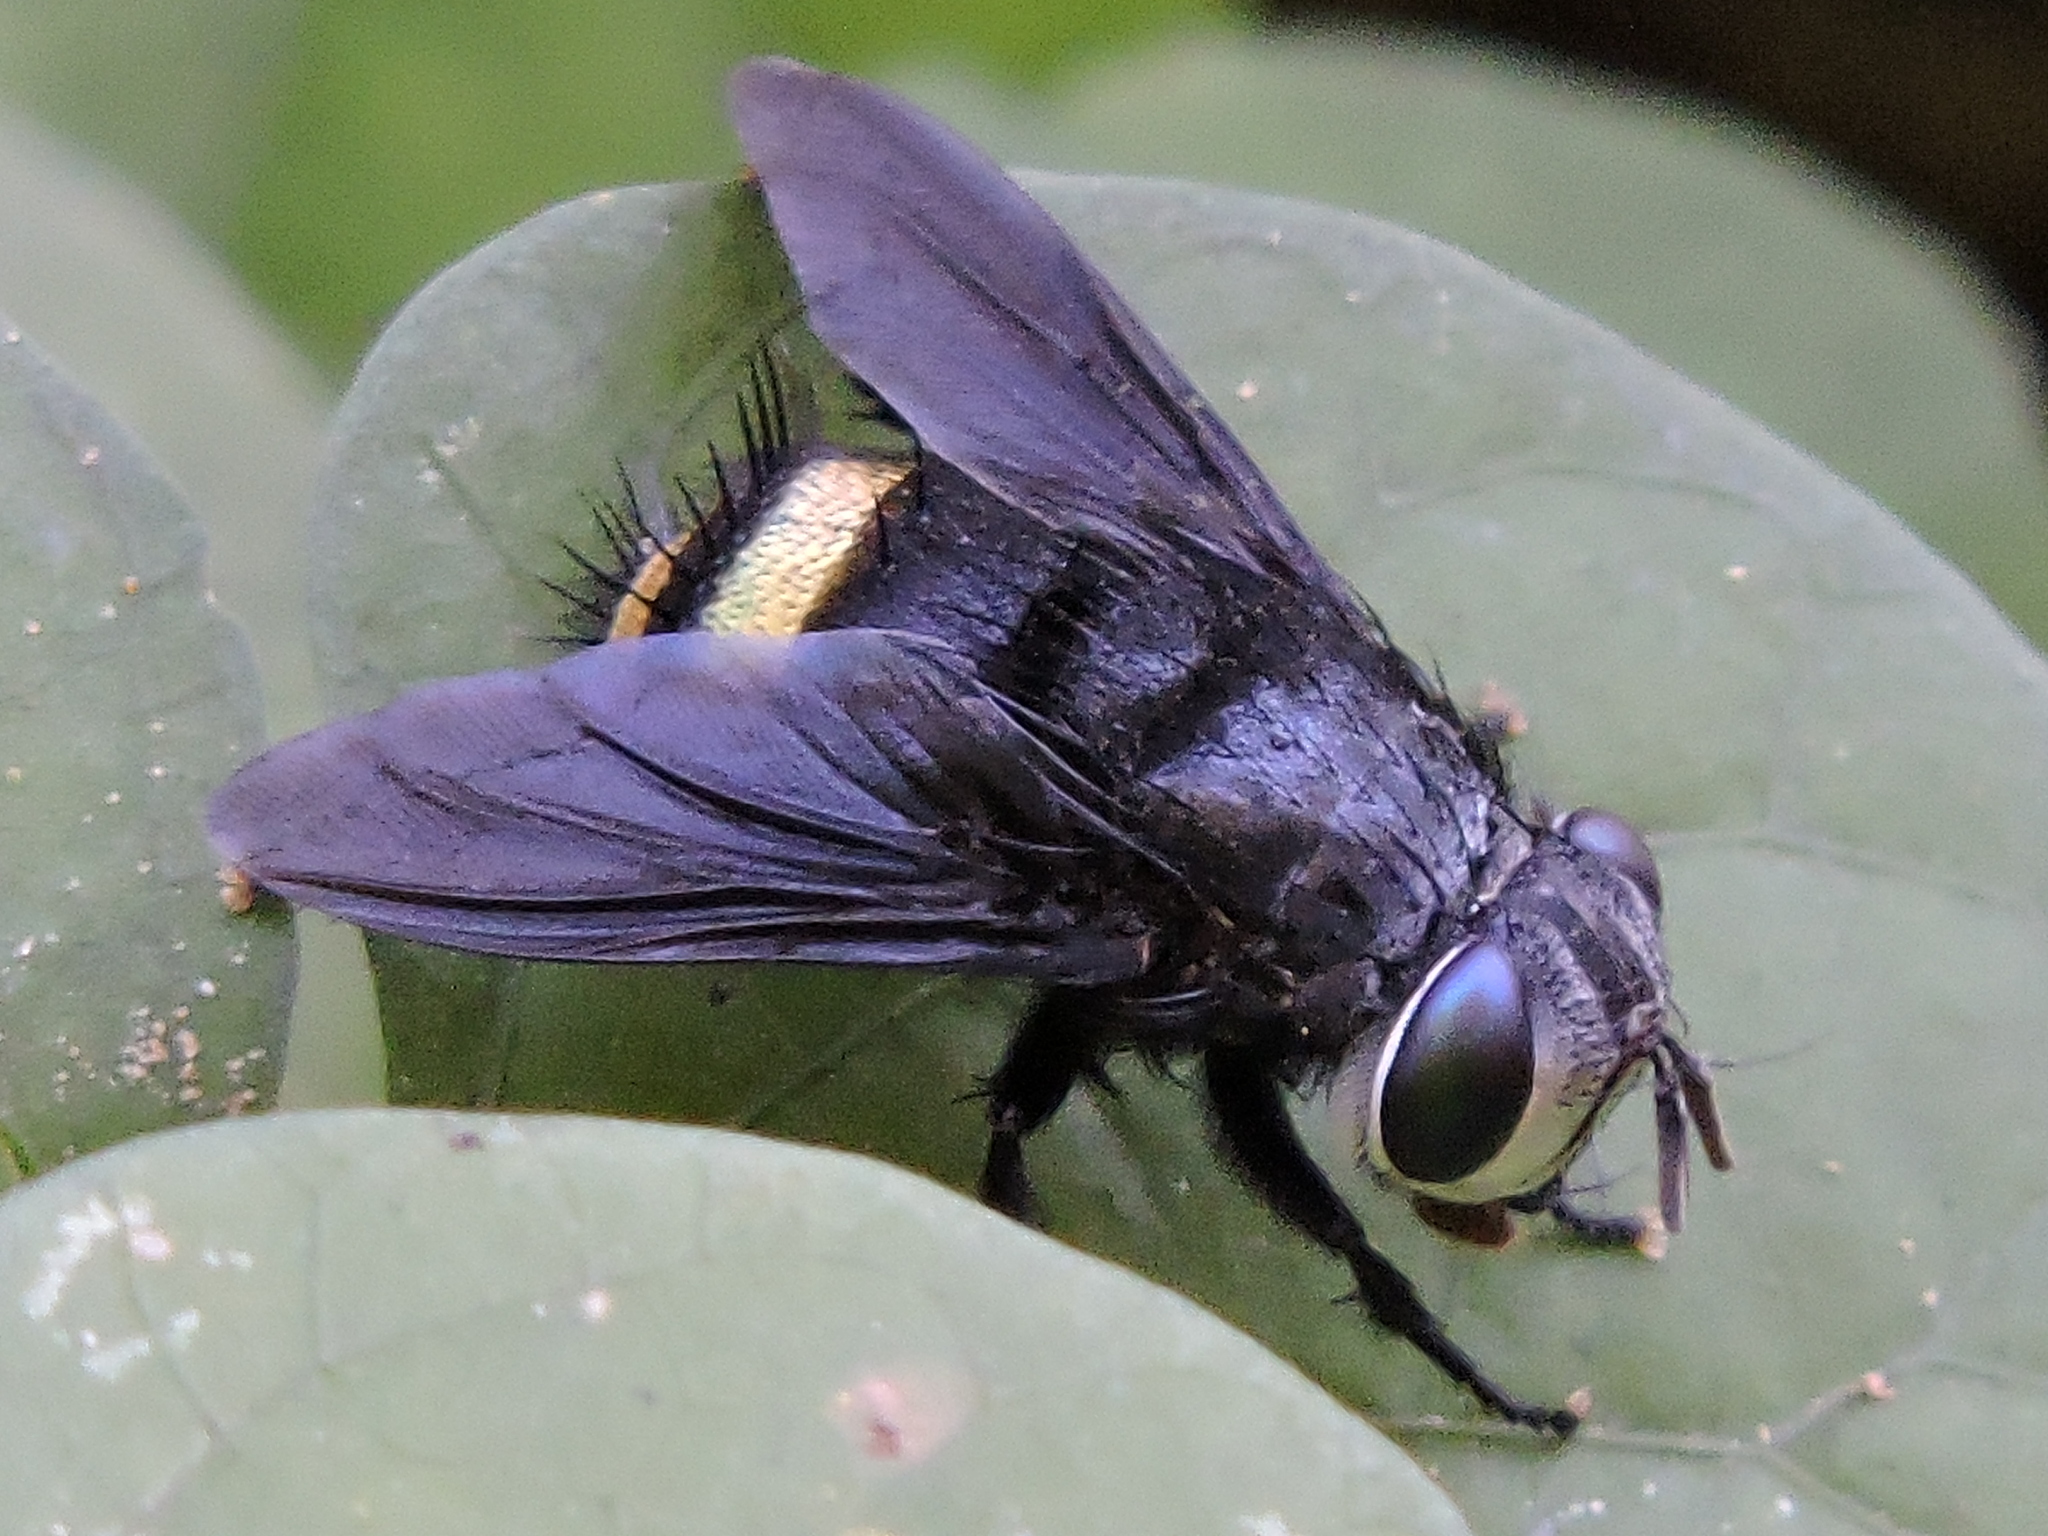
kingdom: Animalia
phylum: Arthropoda
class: Insecta
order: Diptera
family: Tachinidae
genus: Belvosia
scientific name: Belvosia borealis
